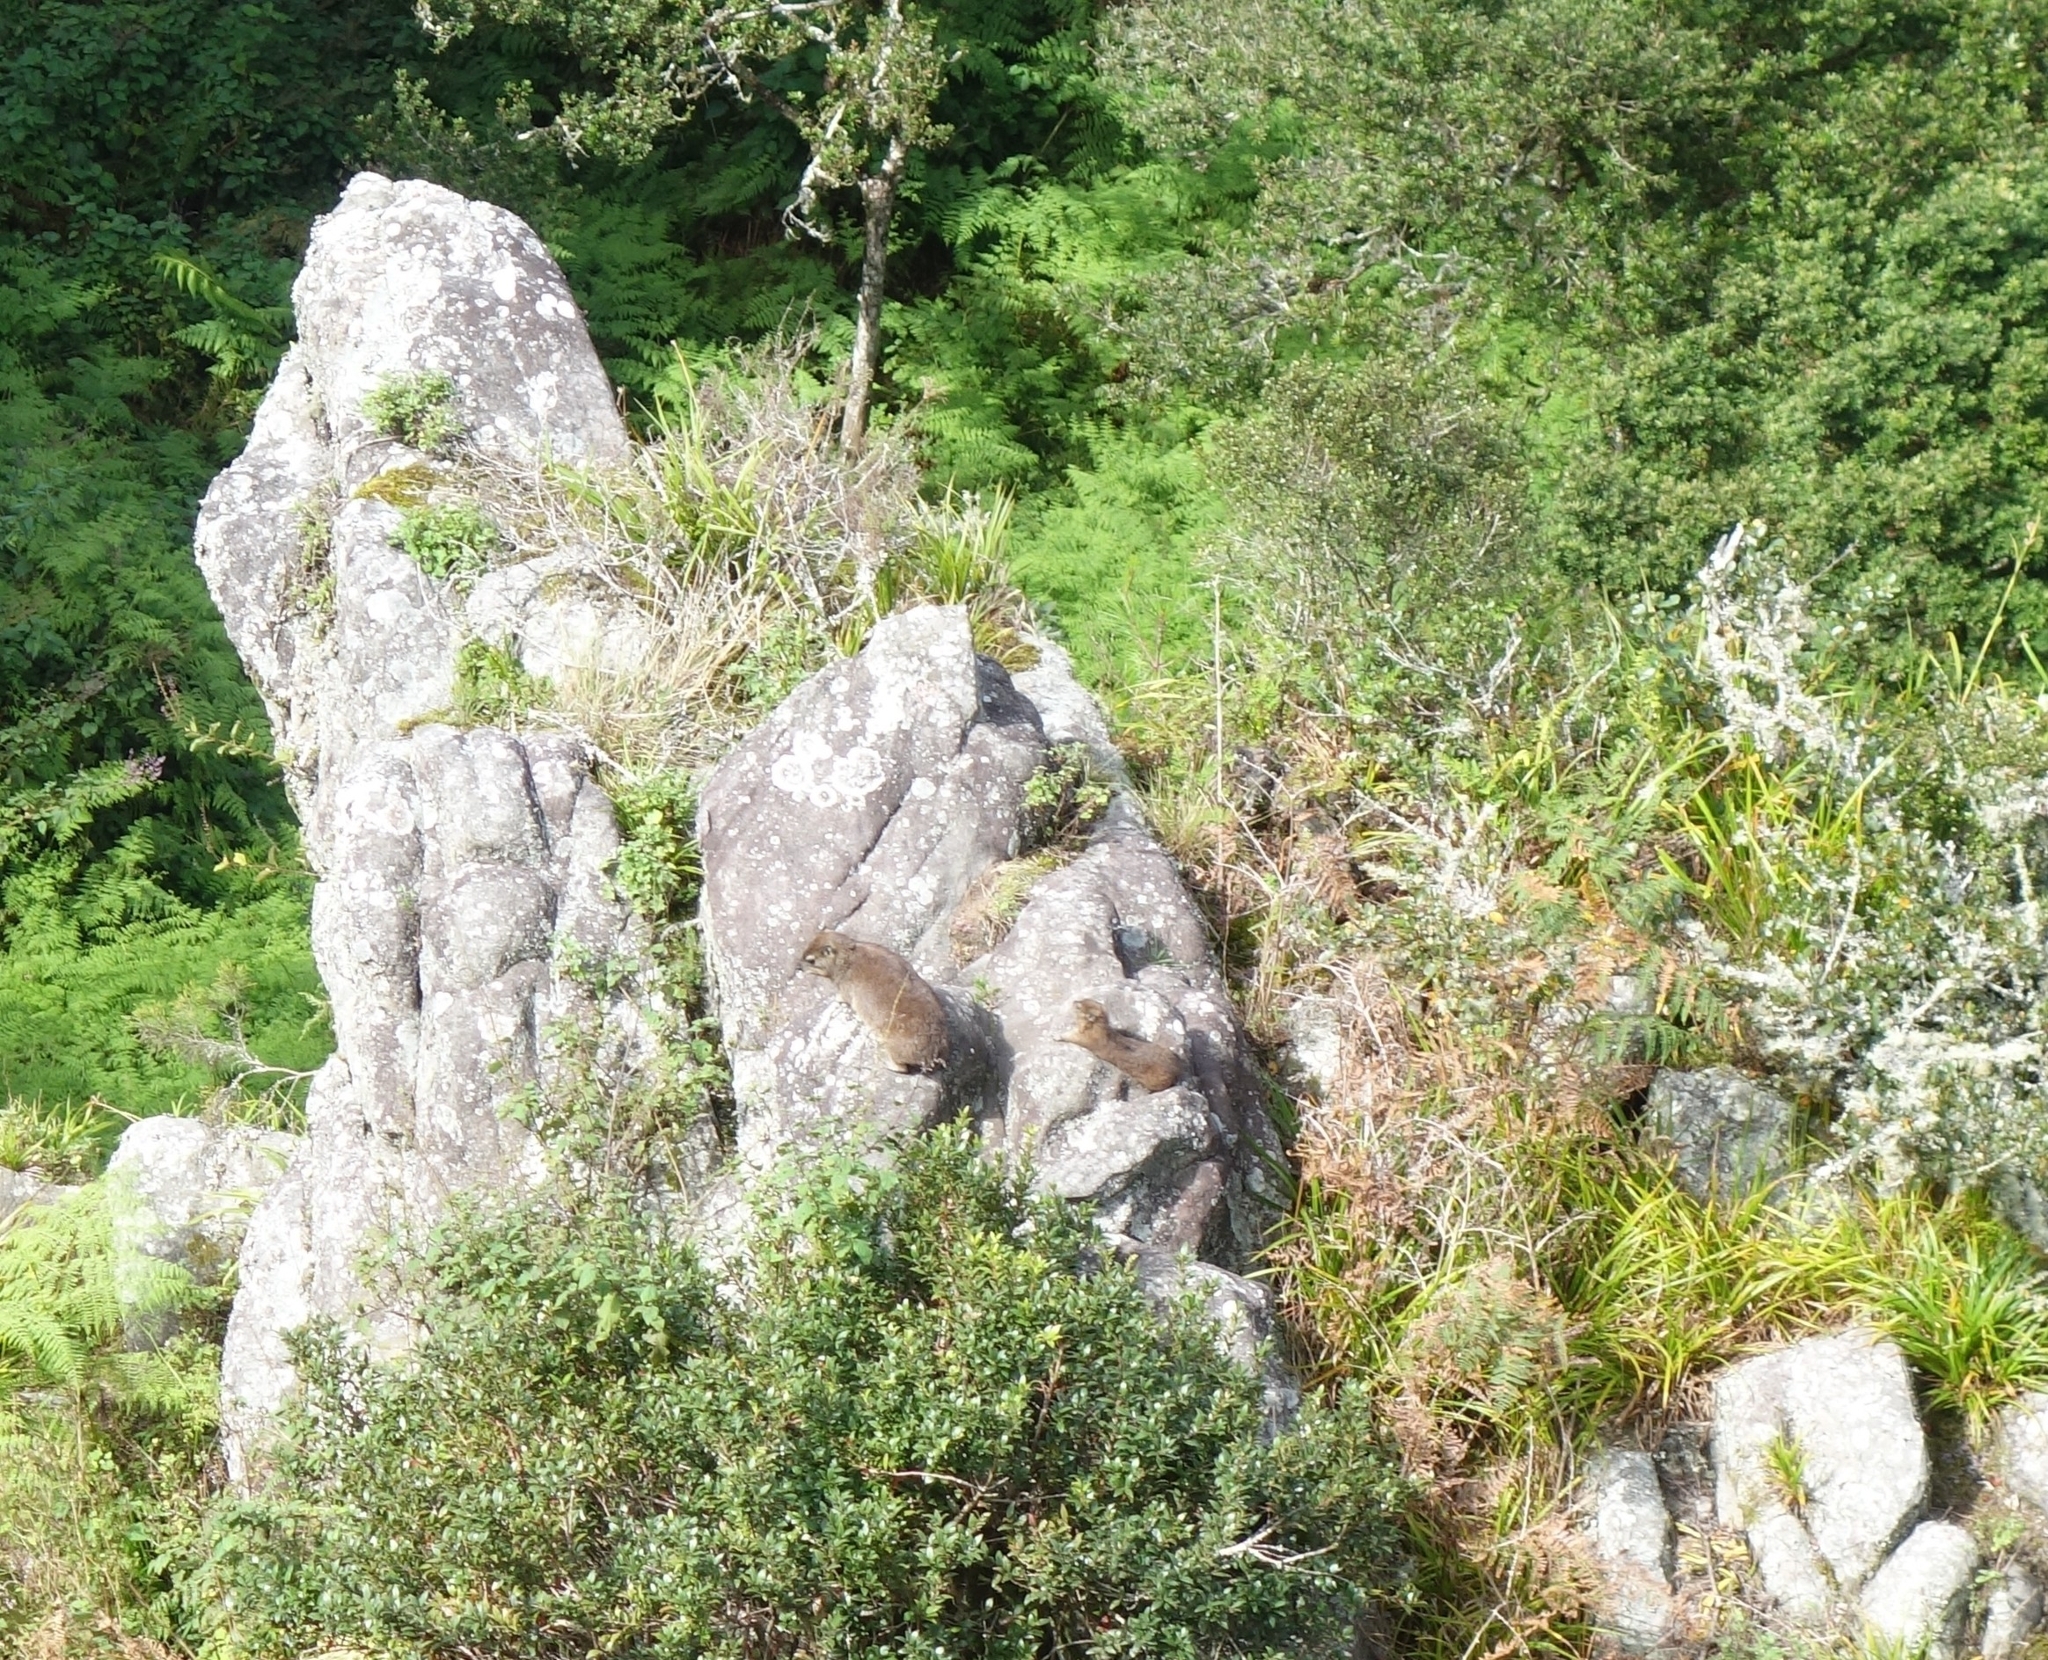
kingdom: Animalia
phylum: Chordata
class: Mammalia
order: Hyracoidea
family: Procaviidae
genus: Procavia
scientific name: Procavia capensis
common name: Rock hyrax
